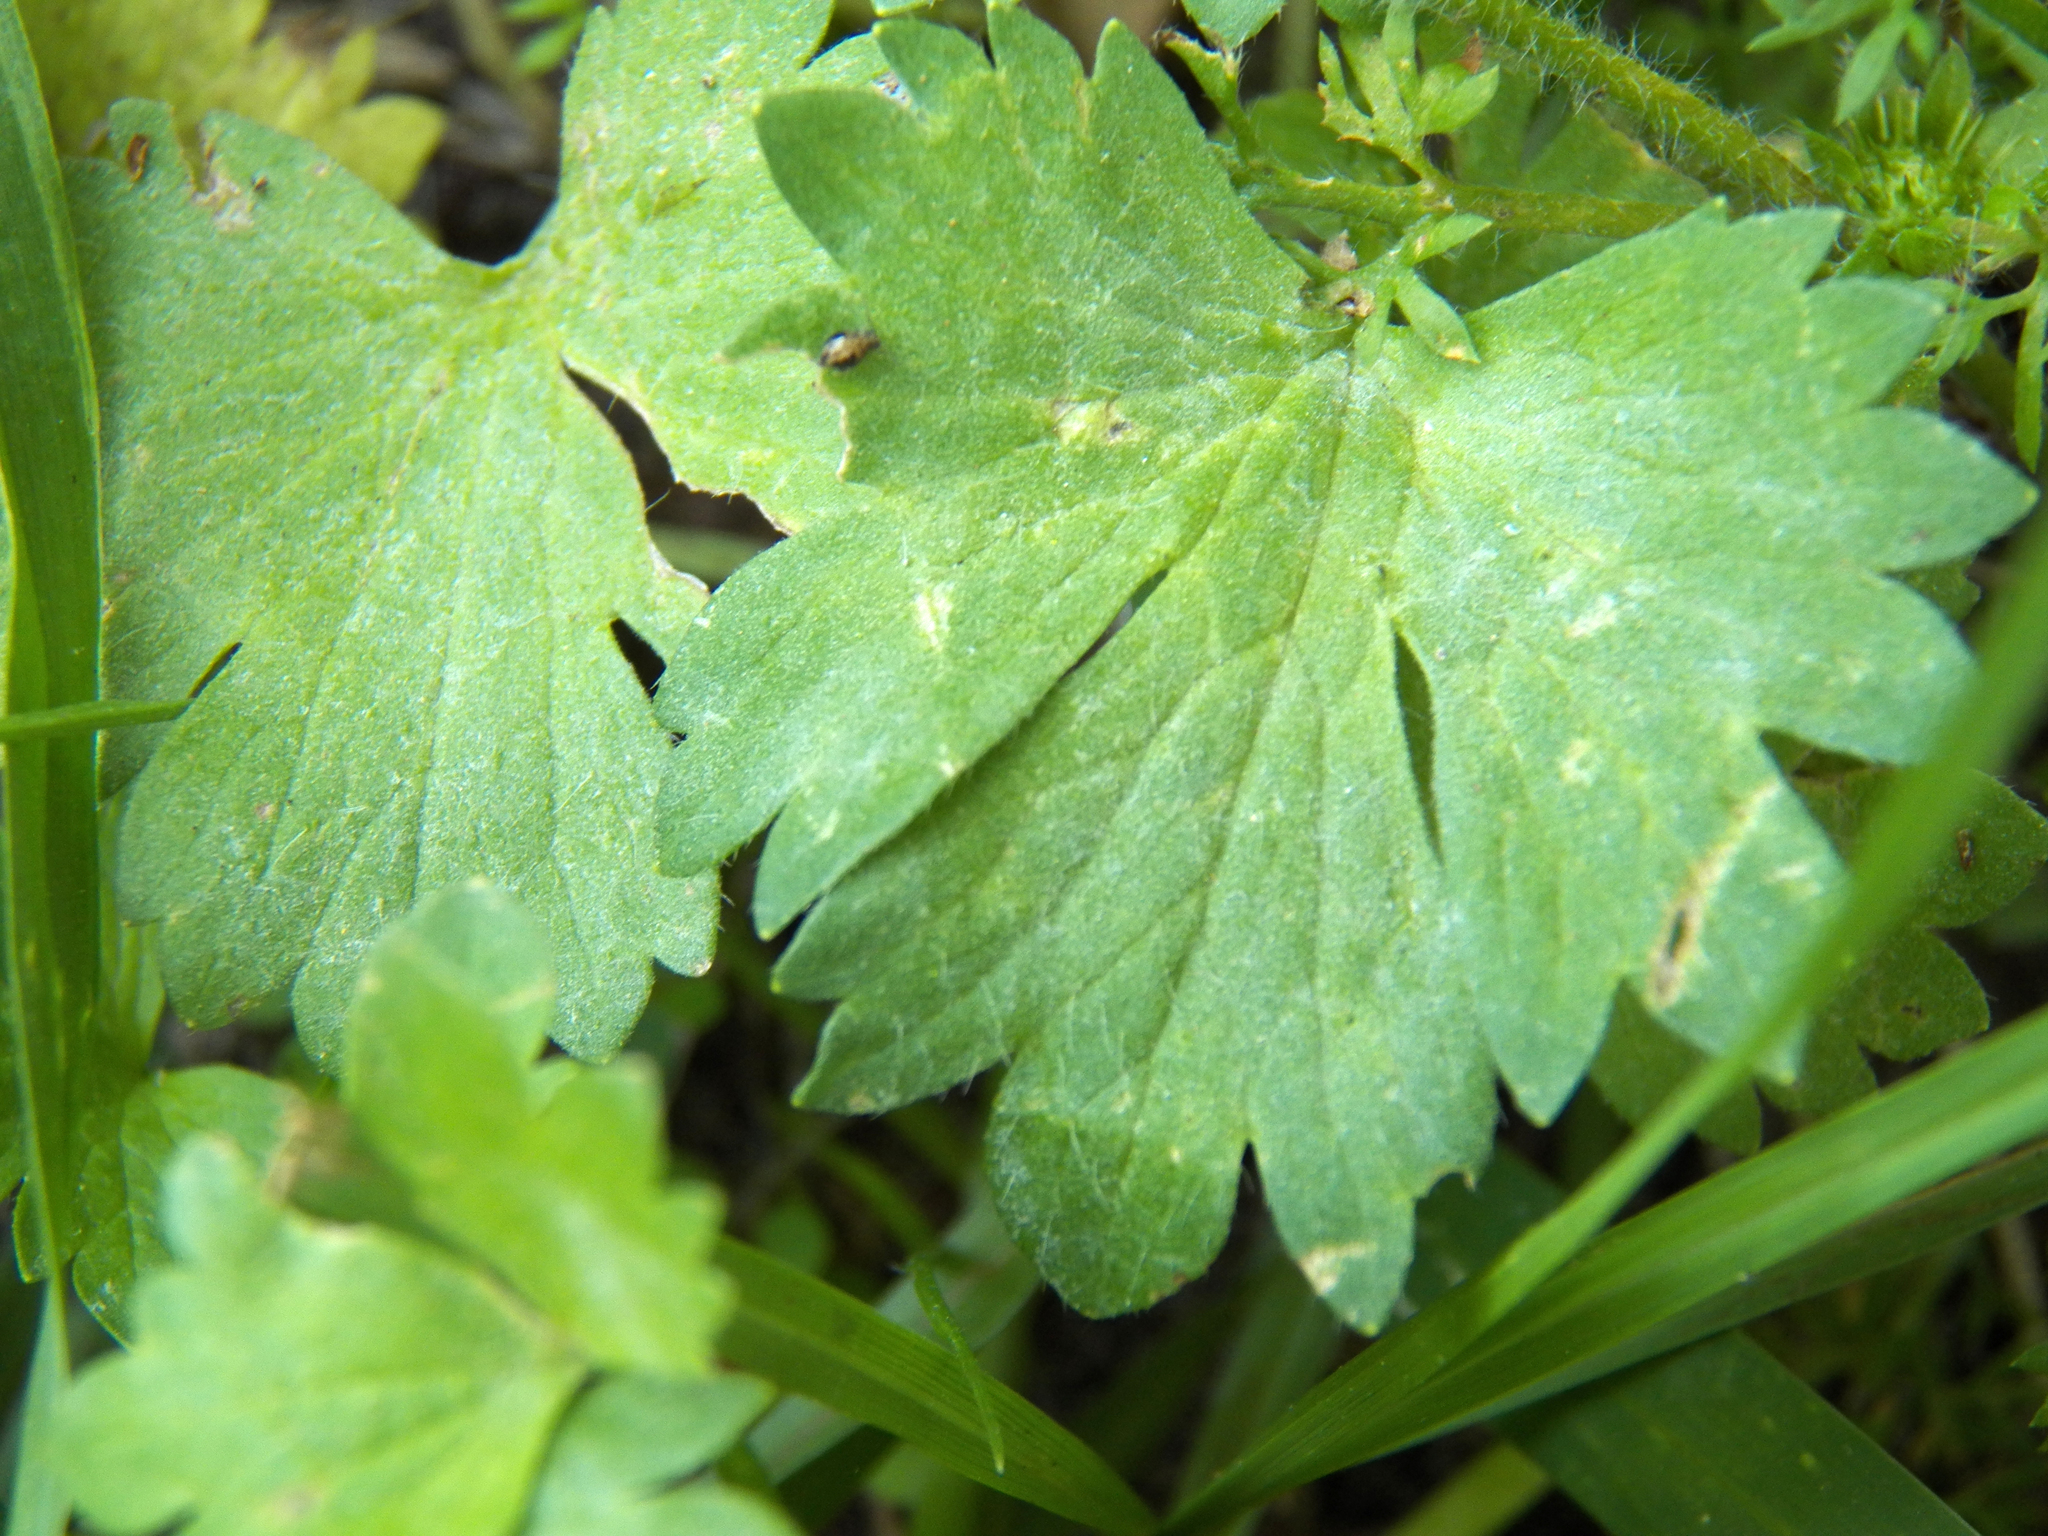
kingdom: Plantae
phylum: Tracheophyta
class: Magnoliopsida
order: Ranunculales
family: Ranunculaceae
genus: Ranunculus
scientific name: Ranunculus muricatus
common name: Rough-fruited buttercup
